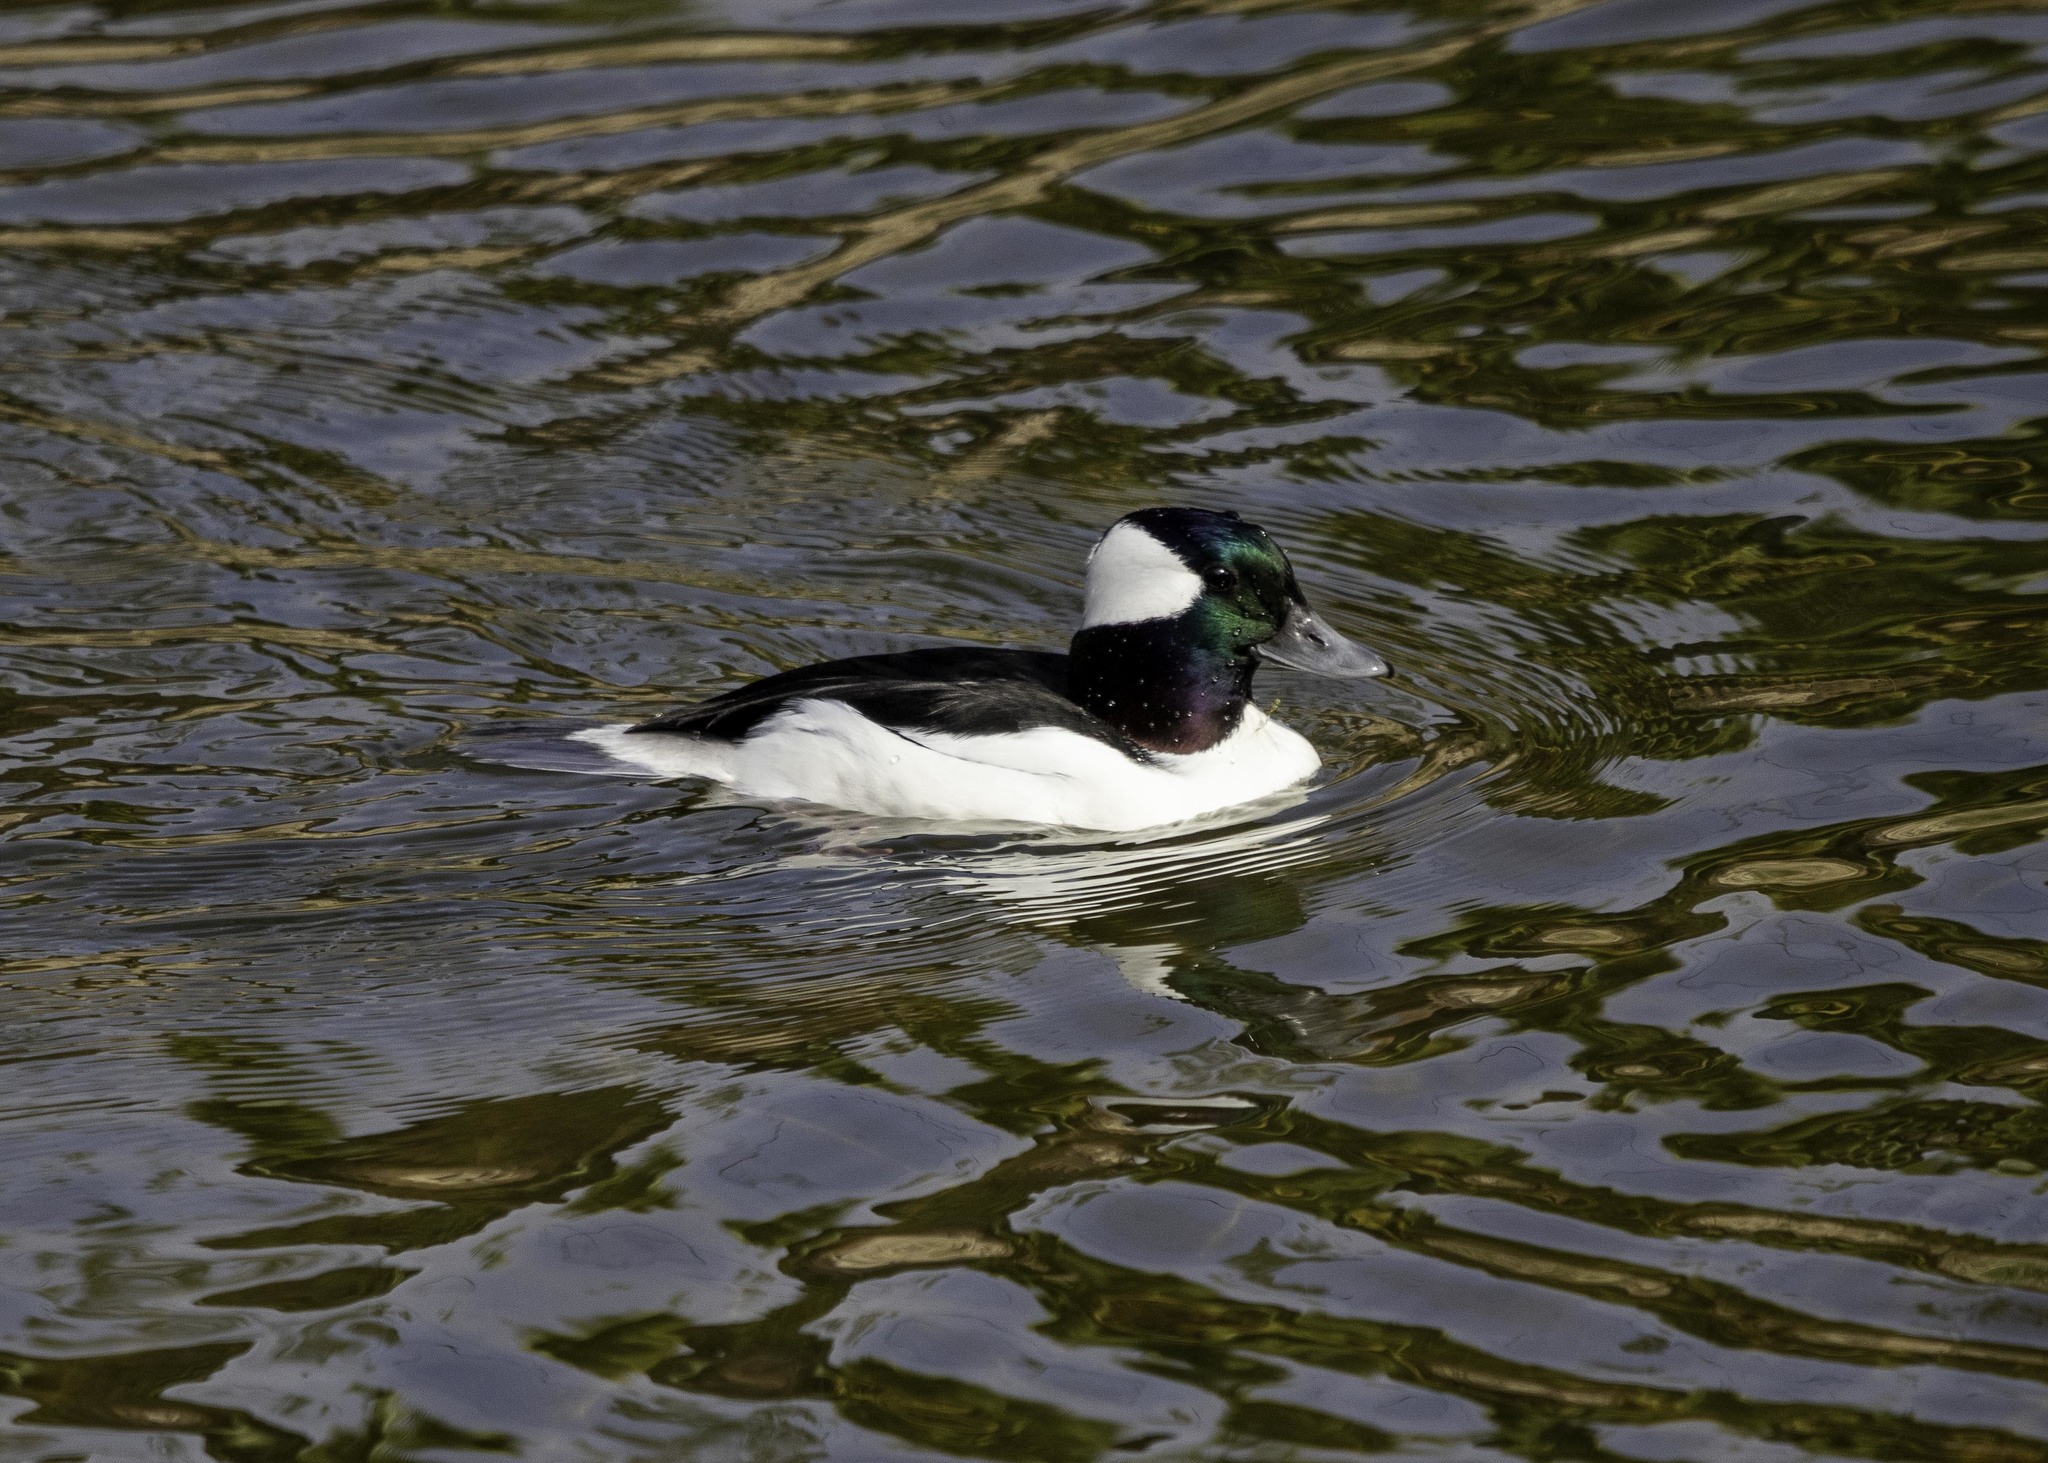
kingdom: Animalia
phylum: Chordata
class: Aves
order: Anseriformes
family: Anatidae
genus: Bucephala
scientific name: Bucephala albeola
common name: Bufflehead
